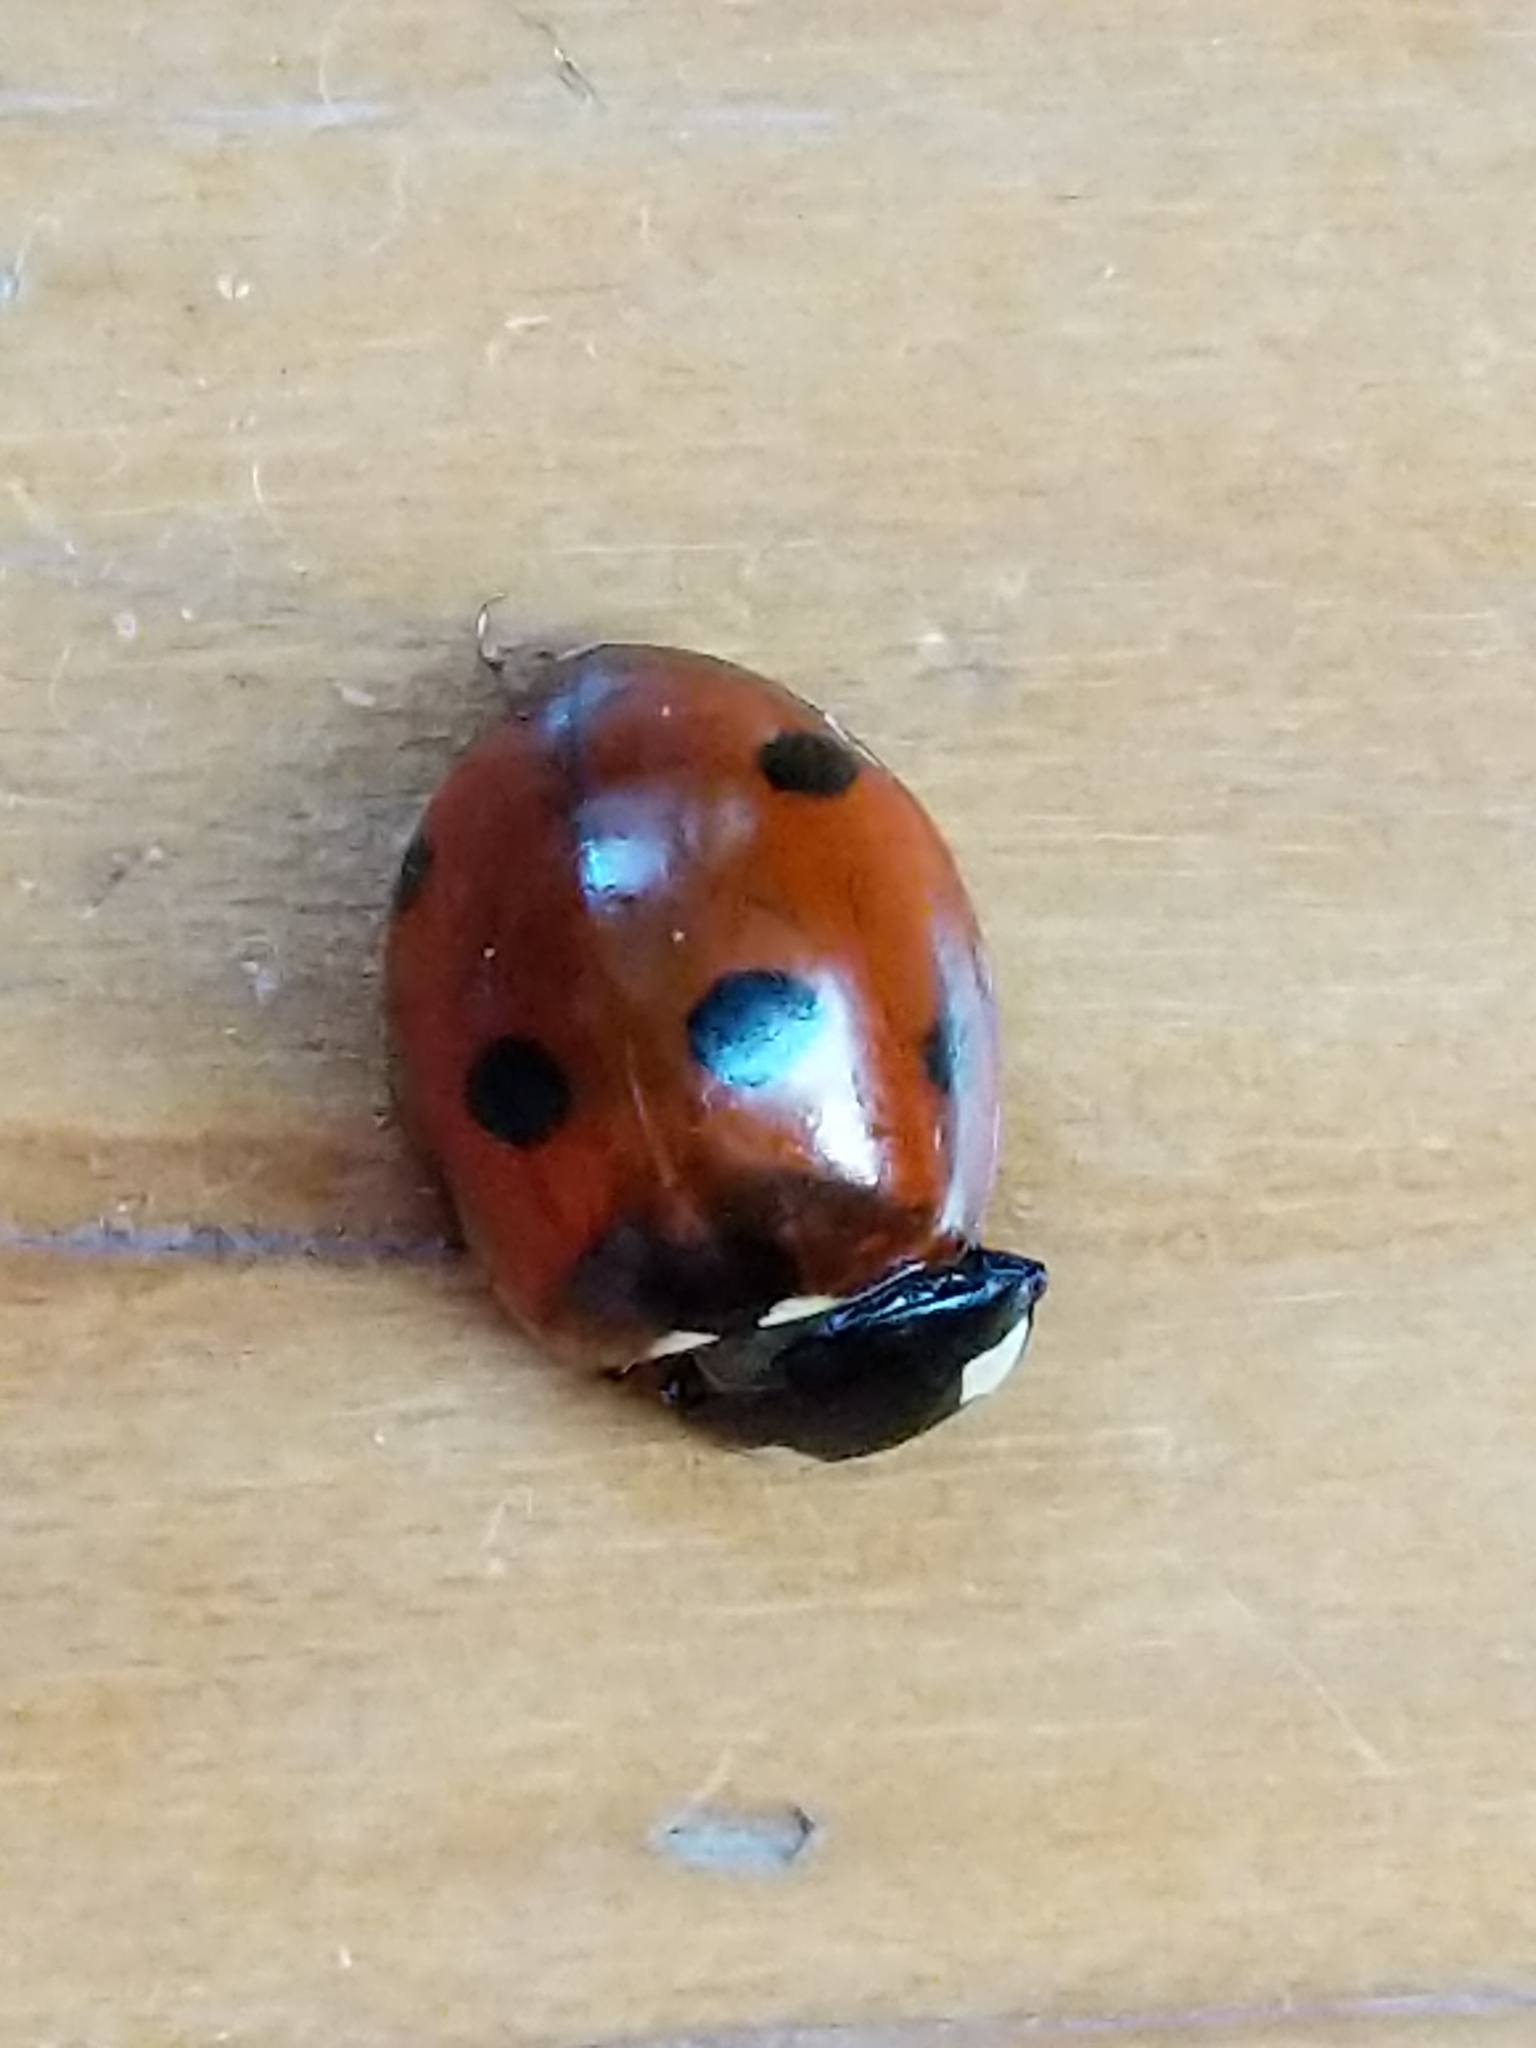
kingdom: Animalia
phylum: Arthropoda
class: Insecta
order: Coleoptera
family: Coccinellidae
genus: Coccinella
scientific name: Coccinella septempunctata
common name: Sevenspotted lady beetle
